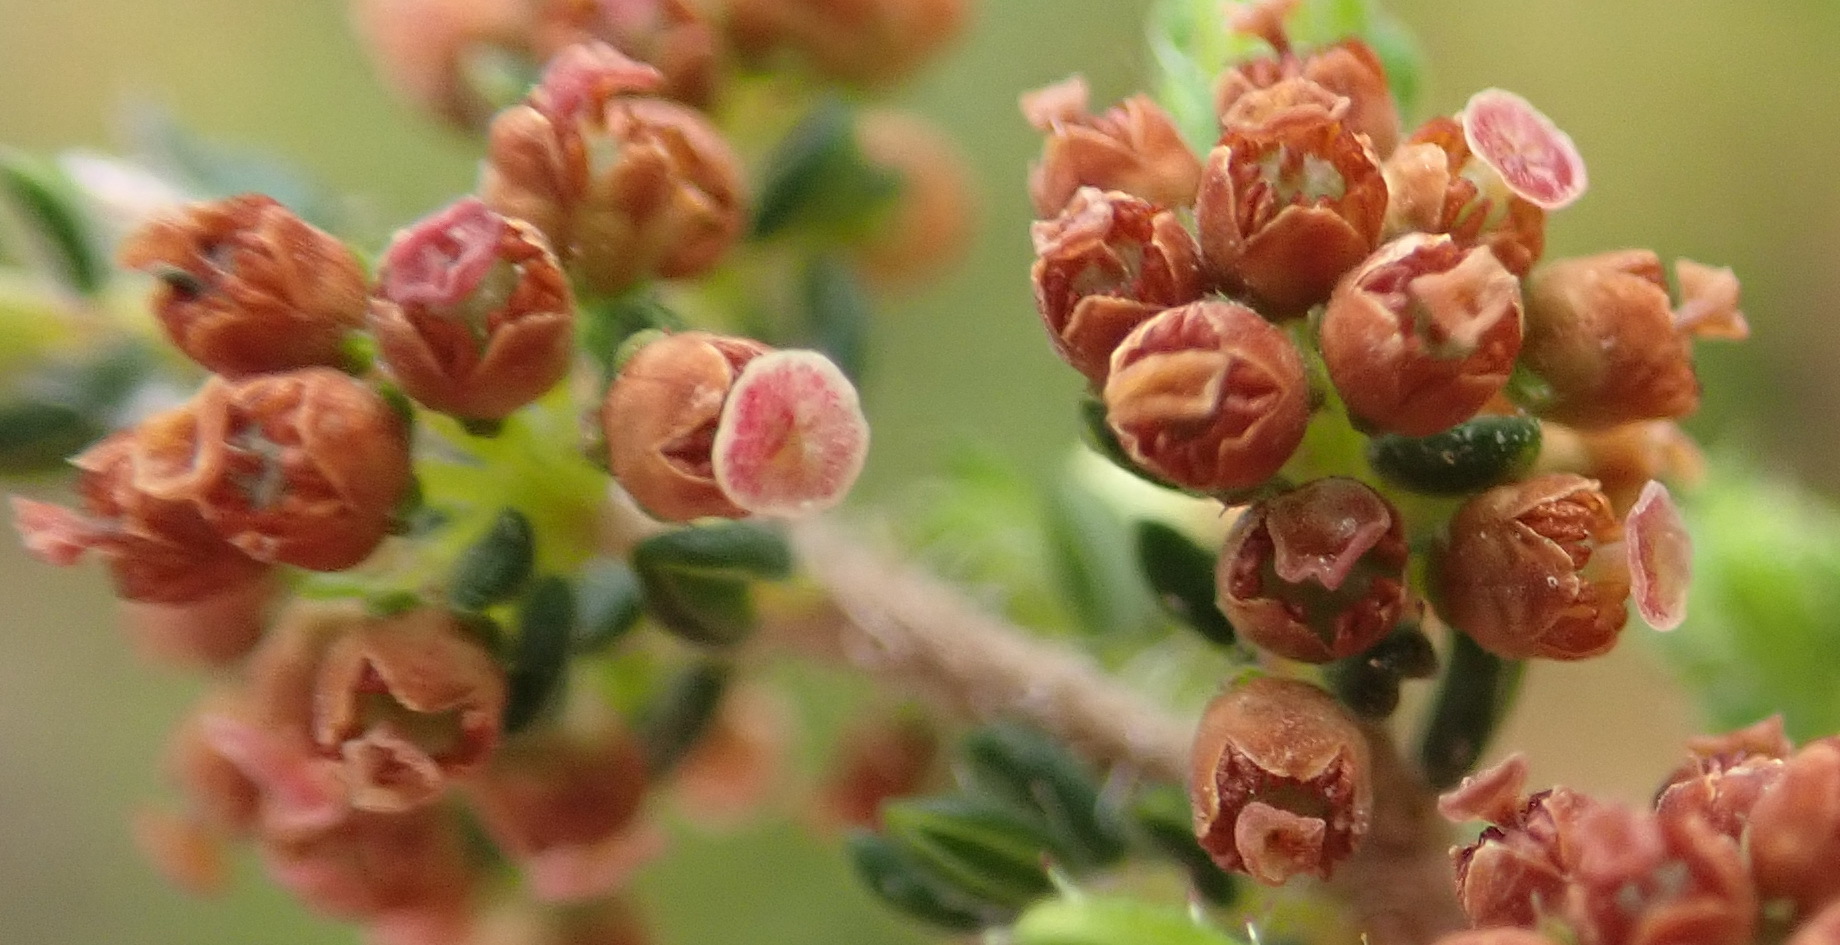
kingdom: Plantae
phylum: Tracheophyta
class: Magnoliopsida
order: Ericales
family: Ericaceae
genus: Erica
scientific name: Erica leucopelta
